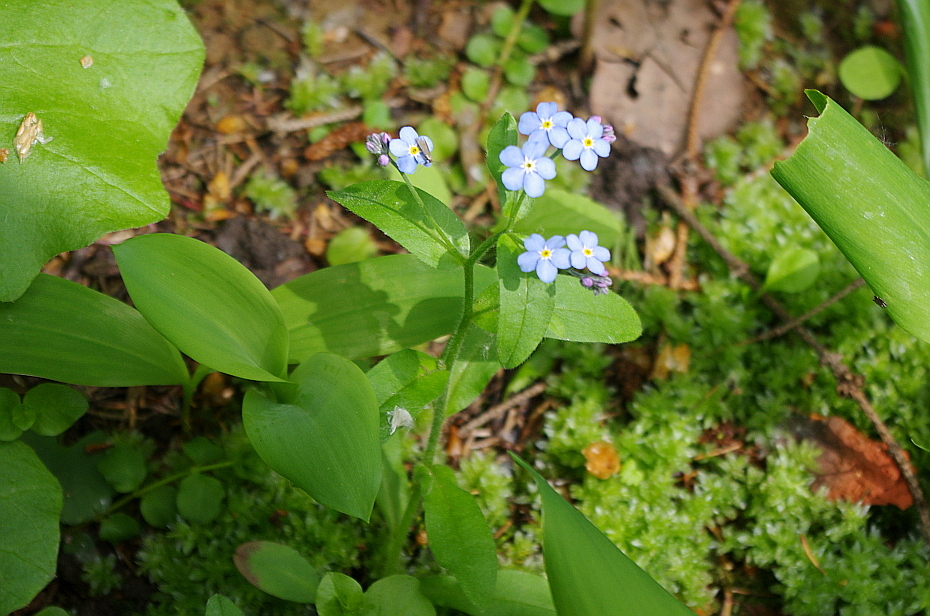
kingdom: Plantae
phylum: Tracheophyta
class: Magnoliopsida
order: Boraginales
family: Boraginaceae
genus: Myosotis
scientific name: Myosotis sylvatica
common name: Wood forget-me-not
